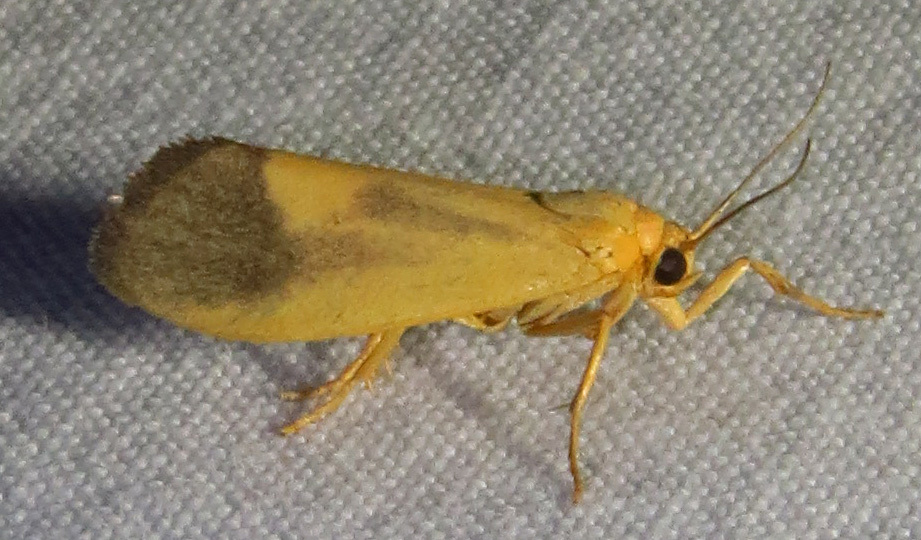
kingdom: Animalia
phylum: Arthropoda
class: Insecta
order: Lepidoptera
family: Erebidae
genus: Cisthene
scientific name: Cisthene plumbea
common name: Lead colored lichen moth
